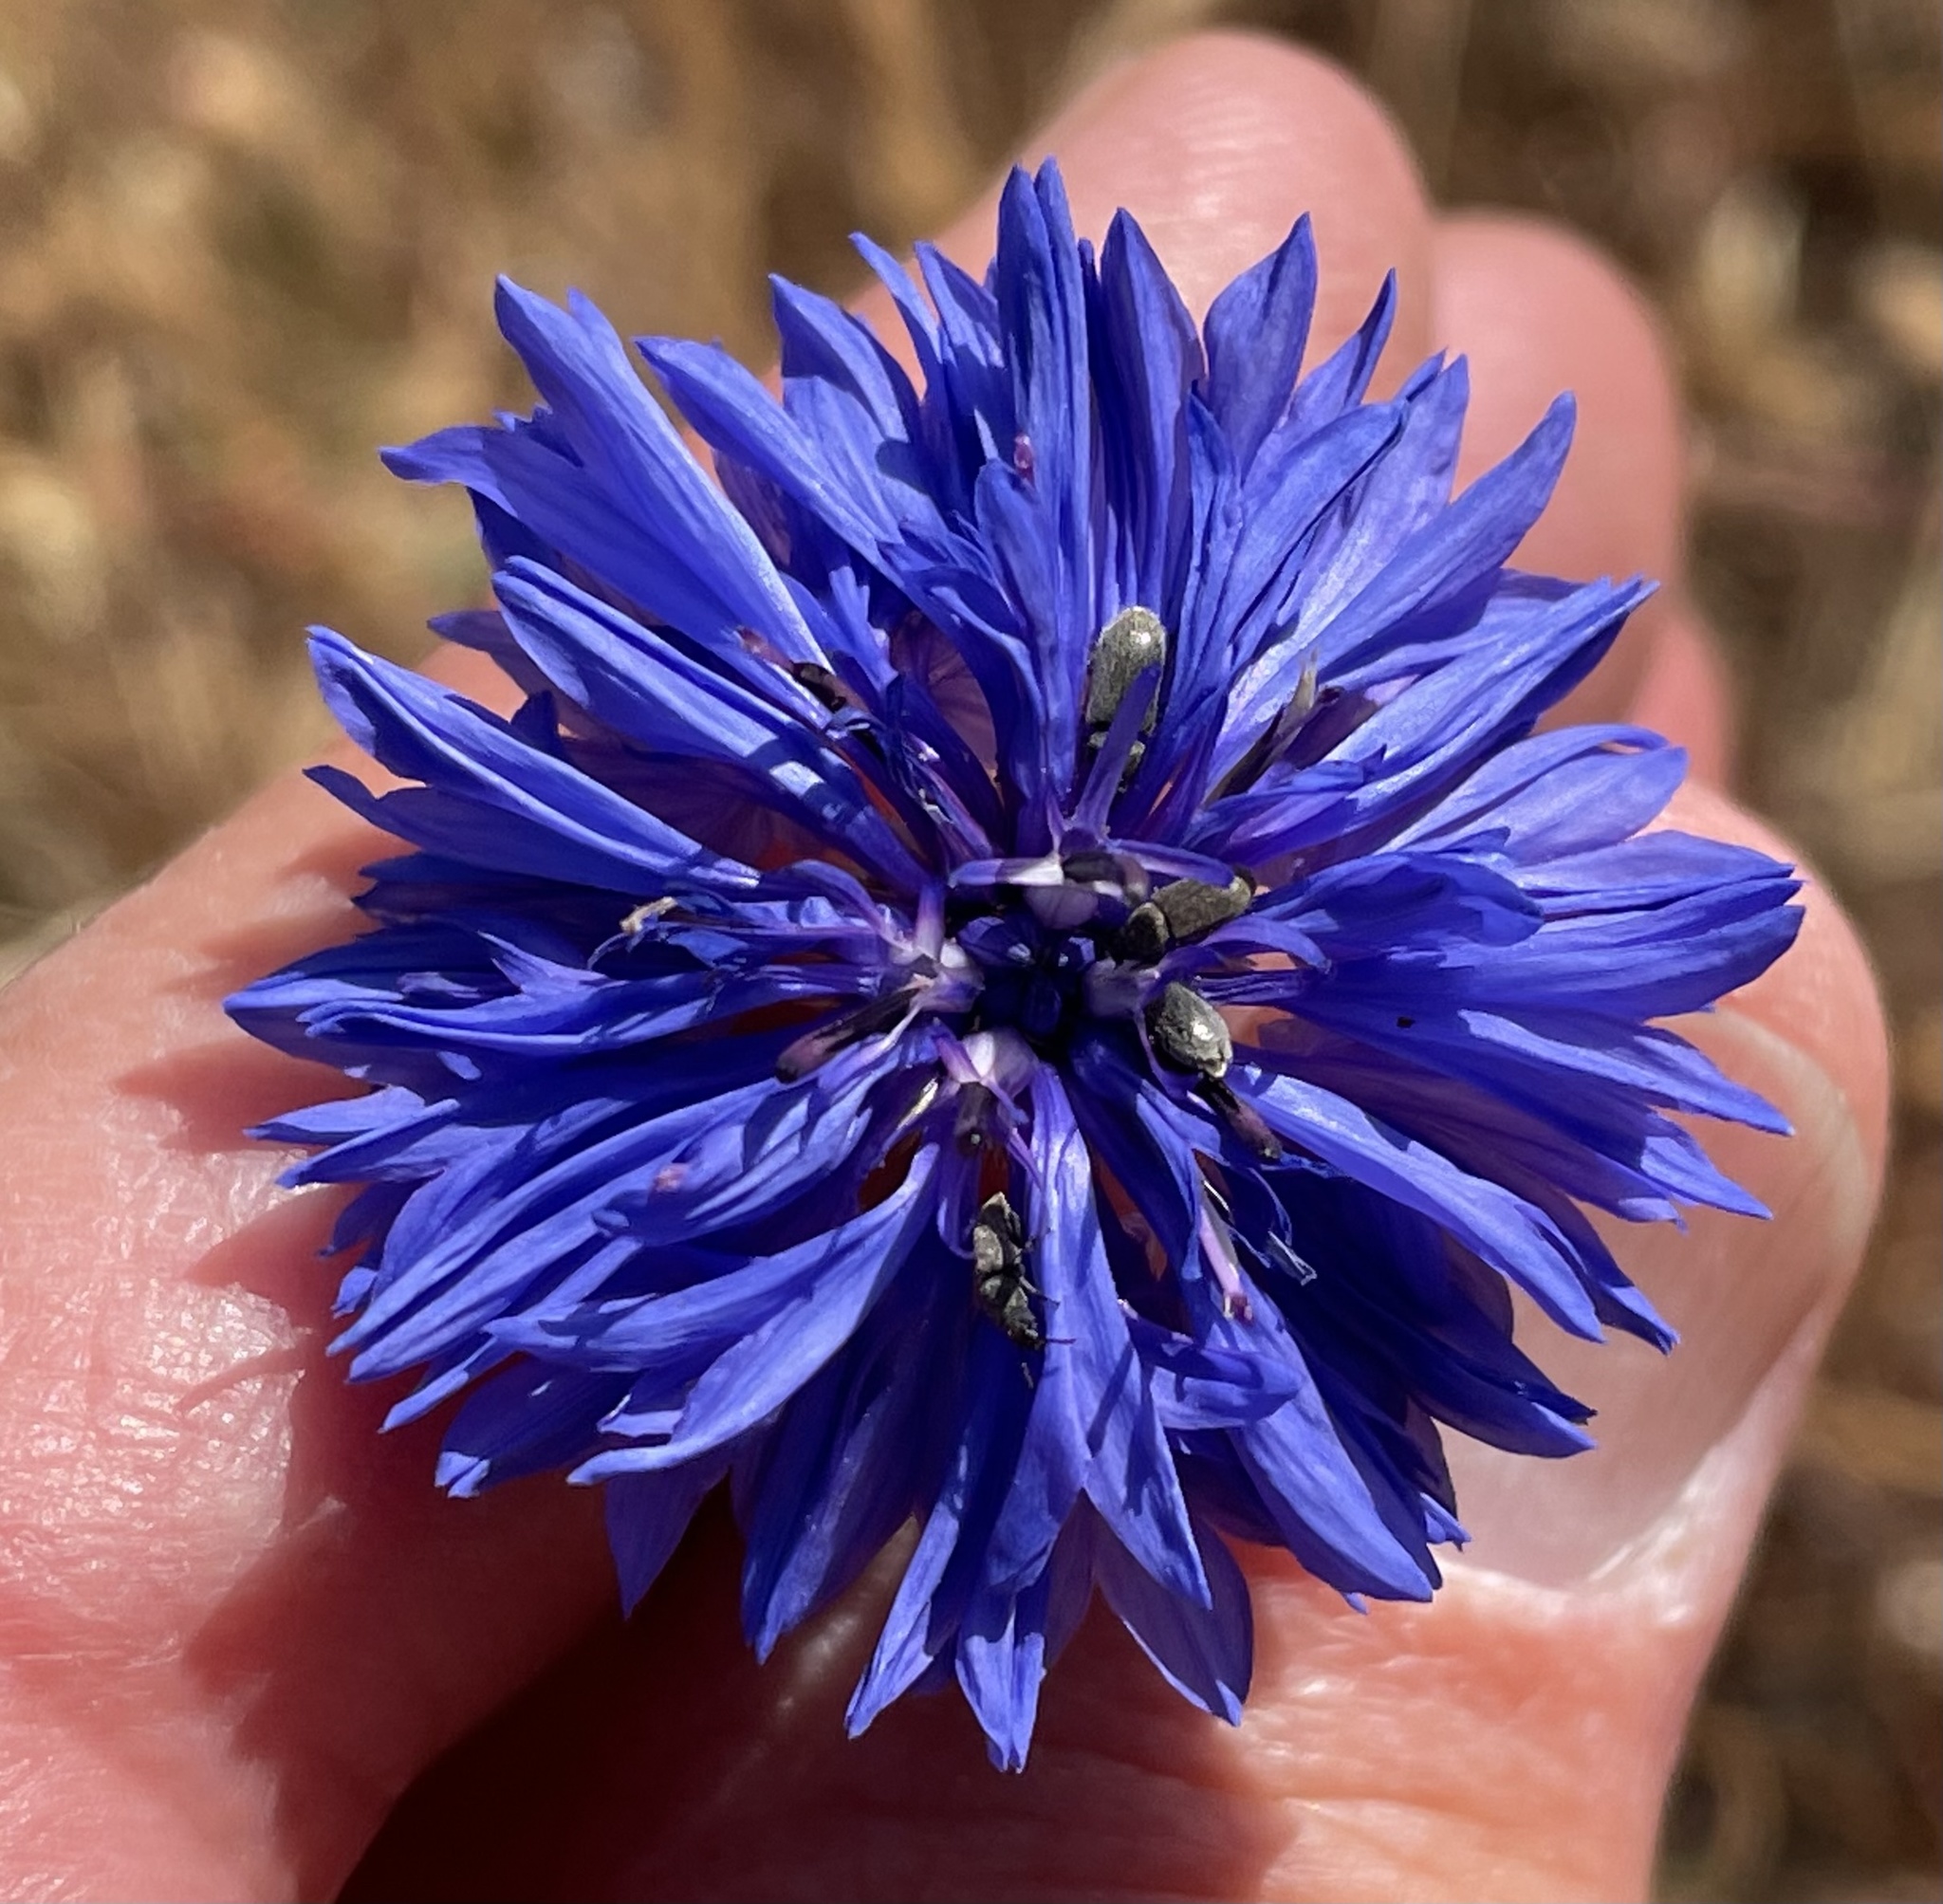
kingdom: Plantae
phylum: Tracheophyta
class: Magnoliopsida
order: Asterales
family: Asteraceae
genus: Centaurea
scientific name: Centaurea cyanus
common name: Cornflower
